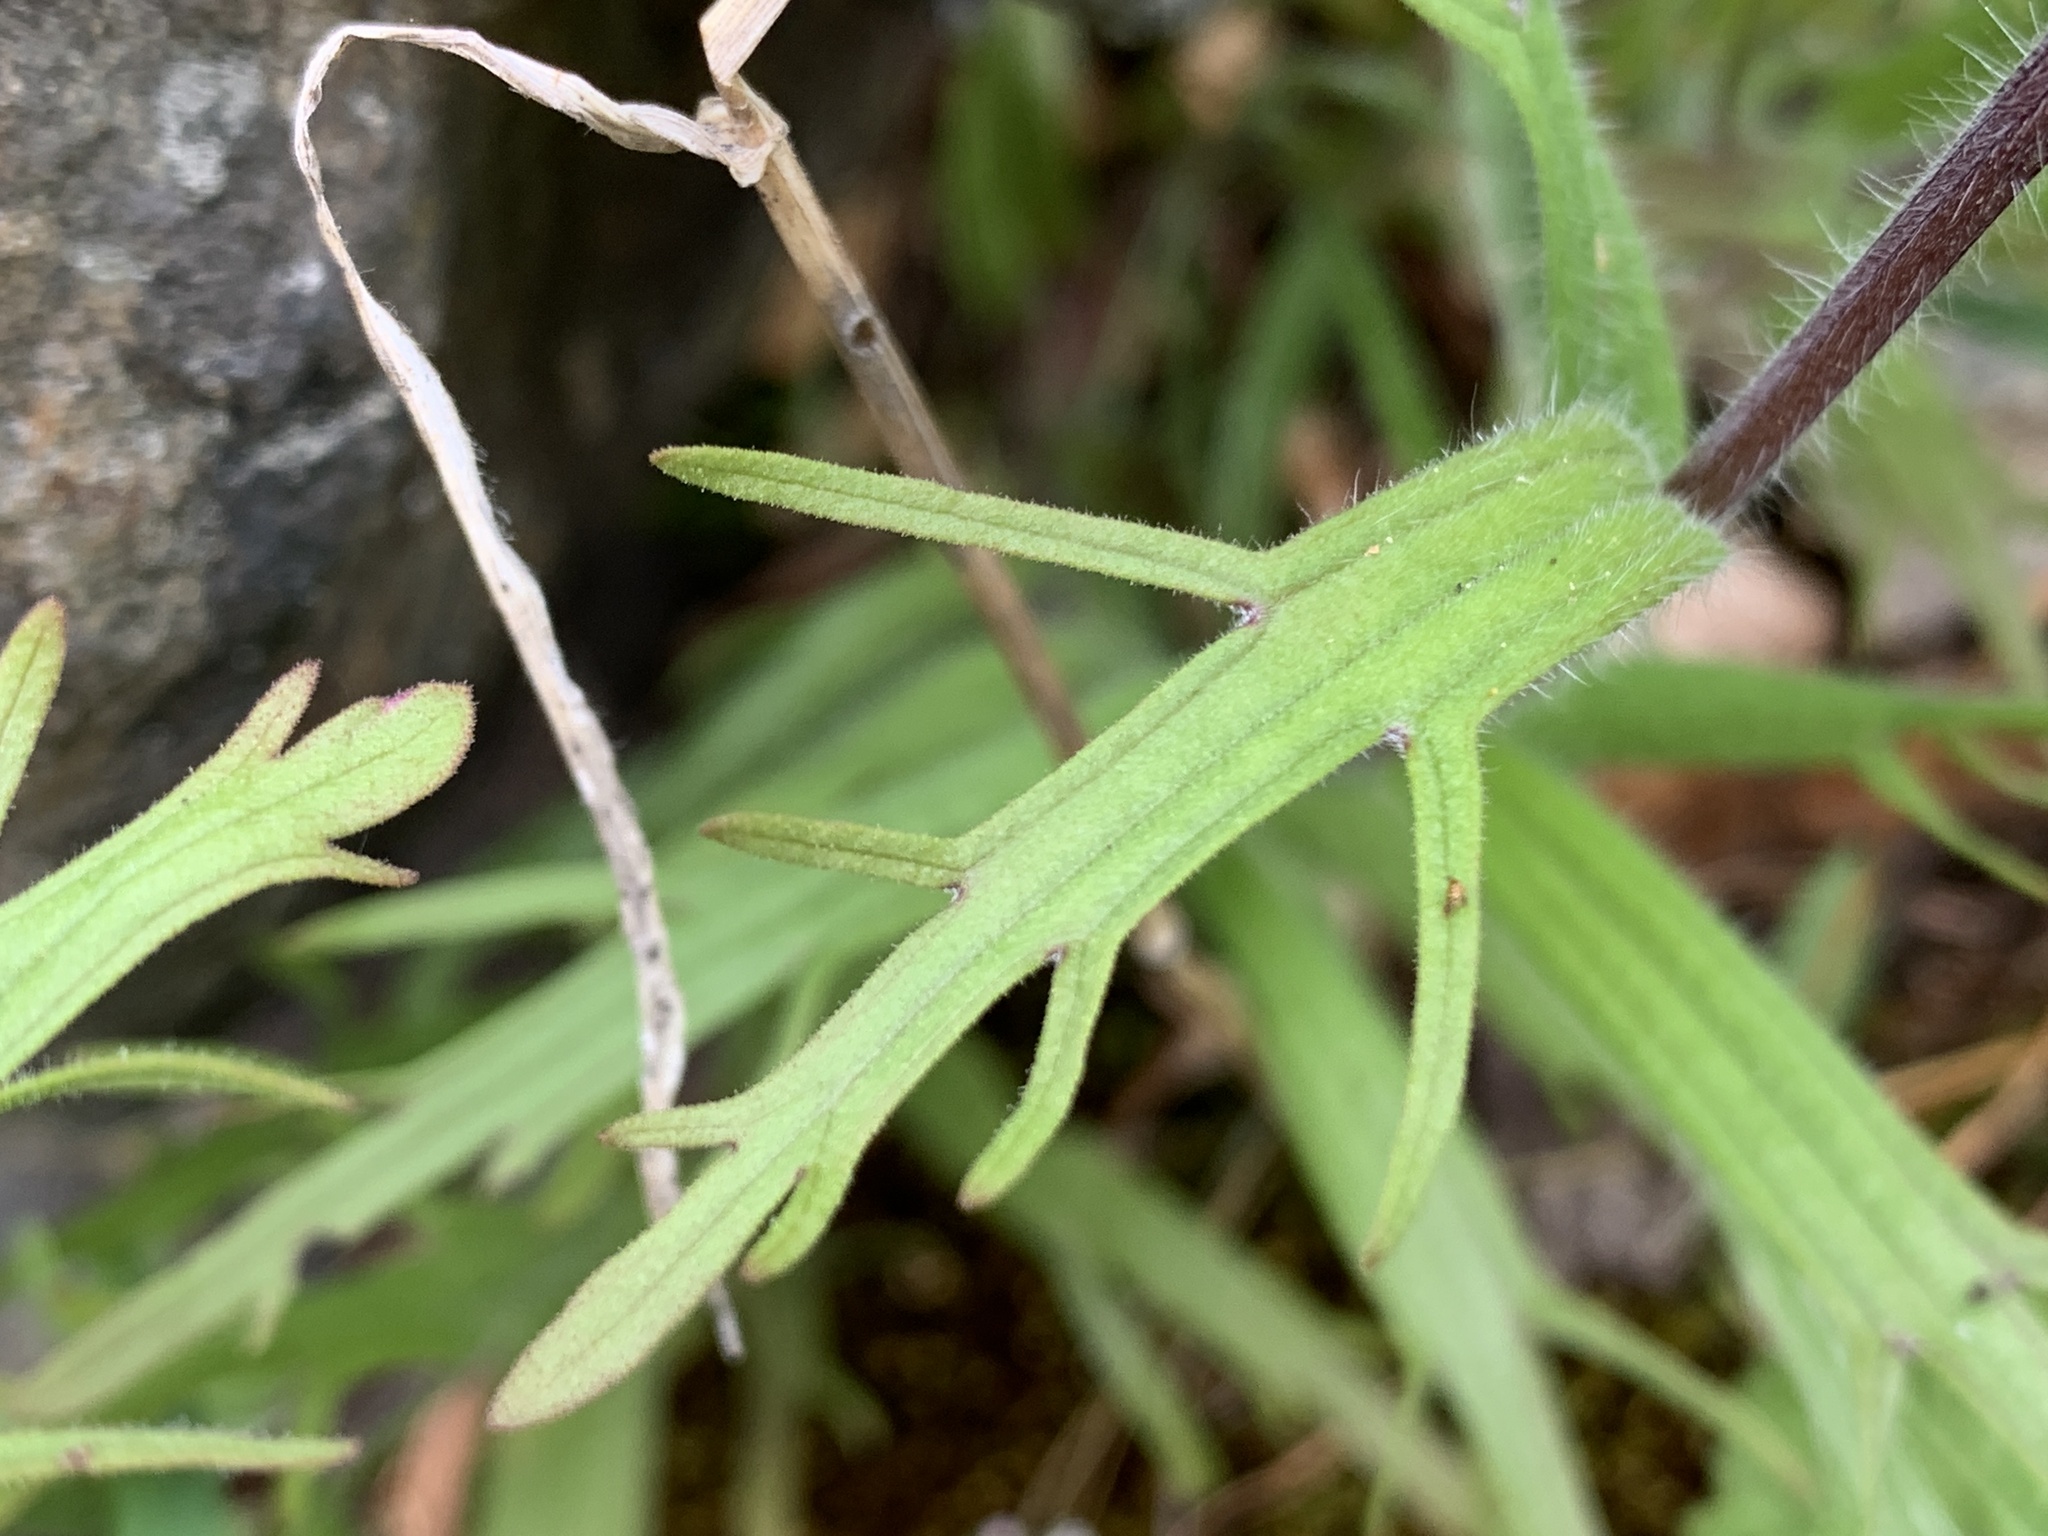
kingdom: Plantae
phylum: Tracheophyta
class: Magnoliopsida
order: Lamiales
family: Orobanchaceae
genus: Castilleja
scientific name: Castilleja hispida
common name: Bristly paintbrush
